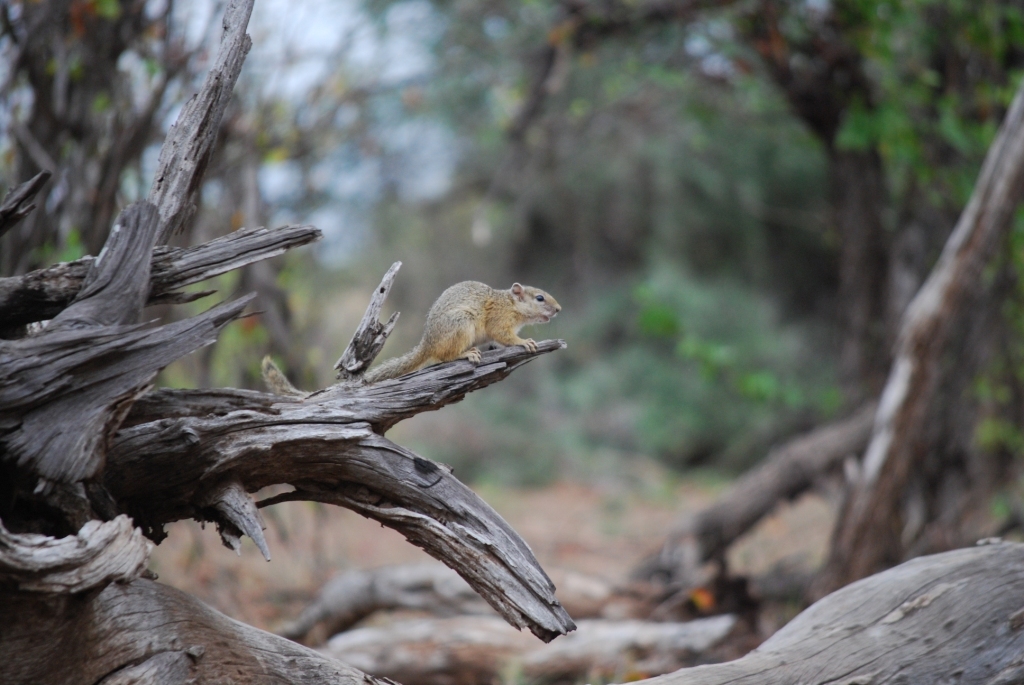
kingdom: Animalia
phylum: Chordata
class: Mammalia
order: Rodentia
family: Sciuridae
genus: Paraxerus
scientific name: Paraxerus cepapi
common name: Smith's bush squirrel
